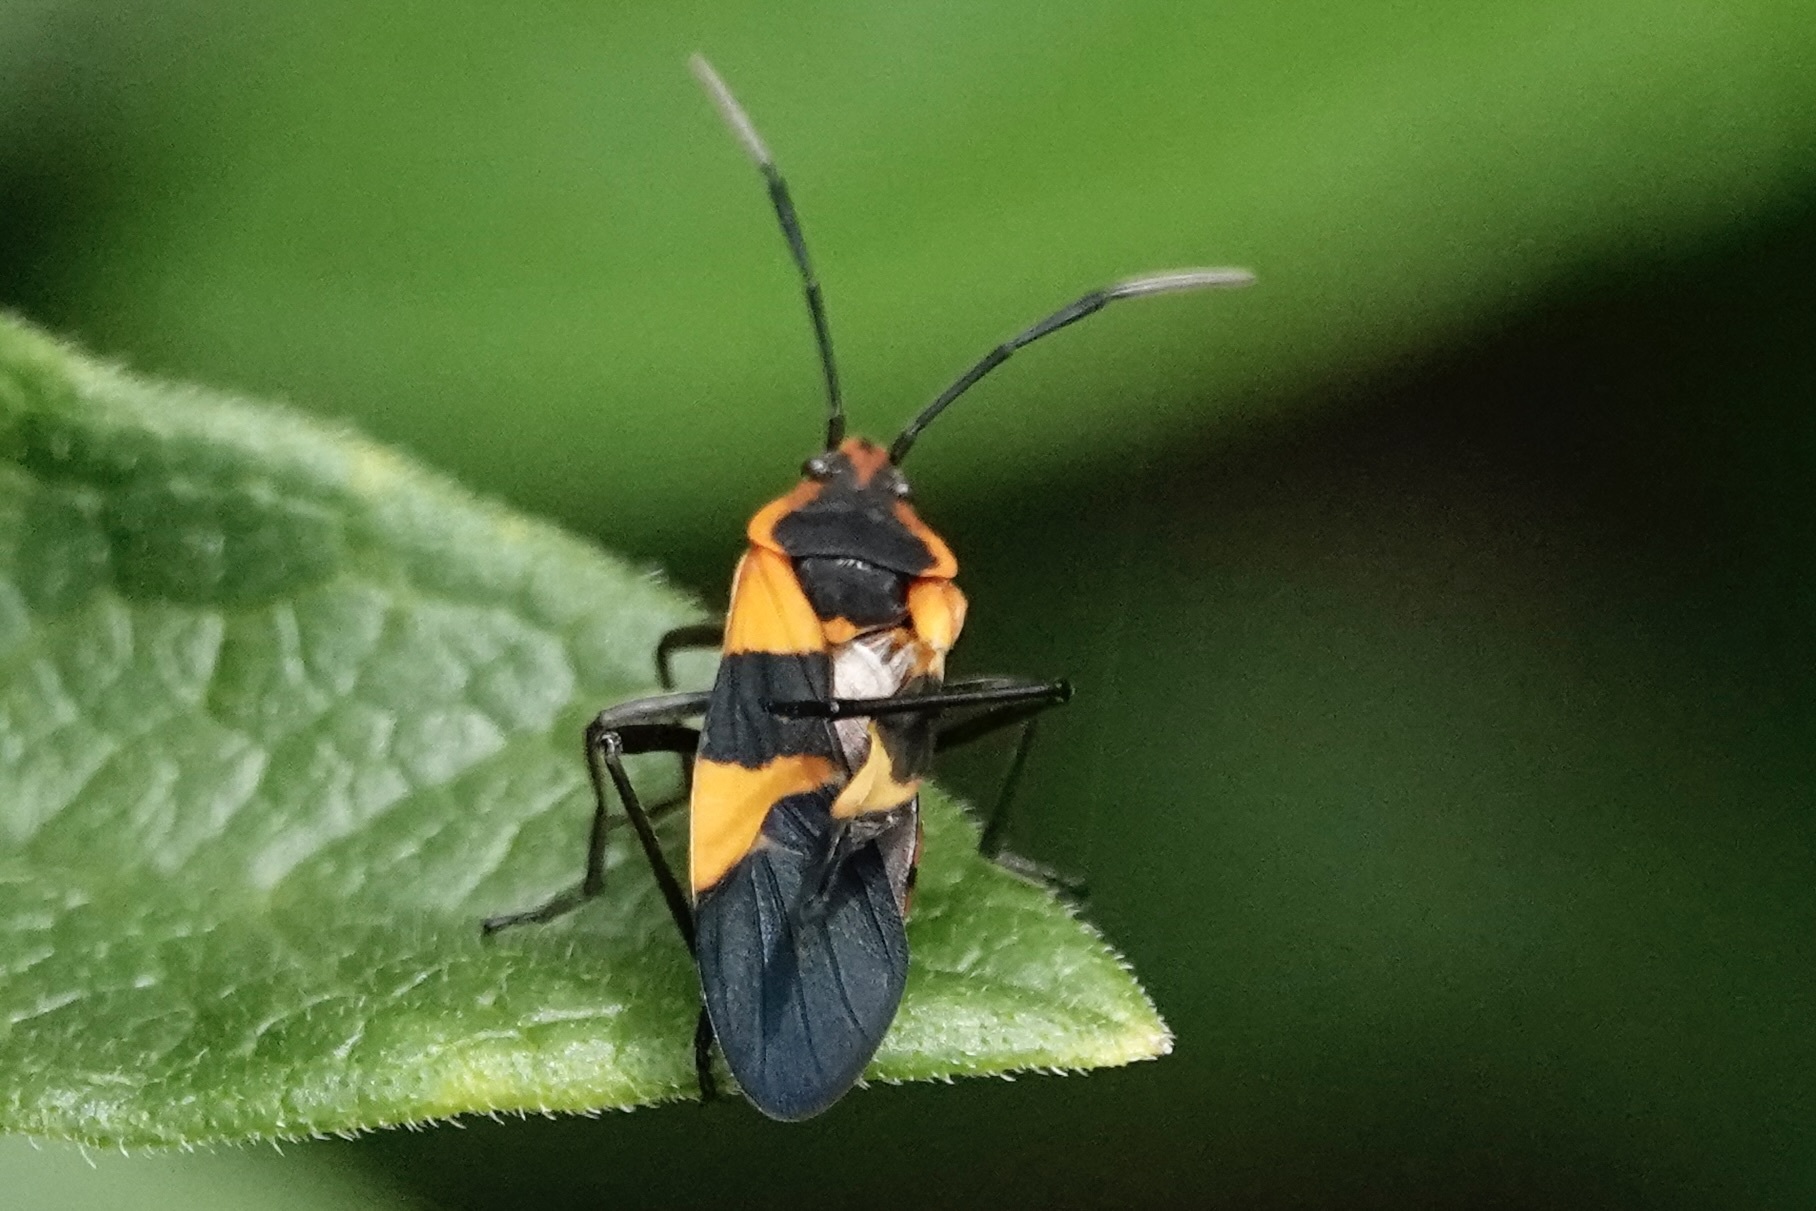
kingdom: Animalia
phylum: Arthropoda
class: Insecta
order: Hemiptera
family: Lygaeidae
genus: Oncopeltus
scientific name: Oncopeltus fasciatus
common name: Large milkweed bug
